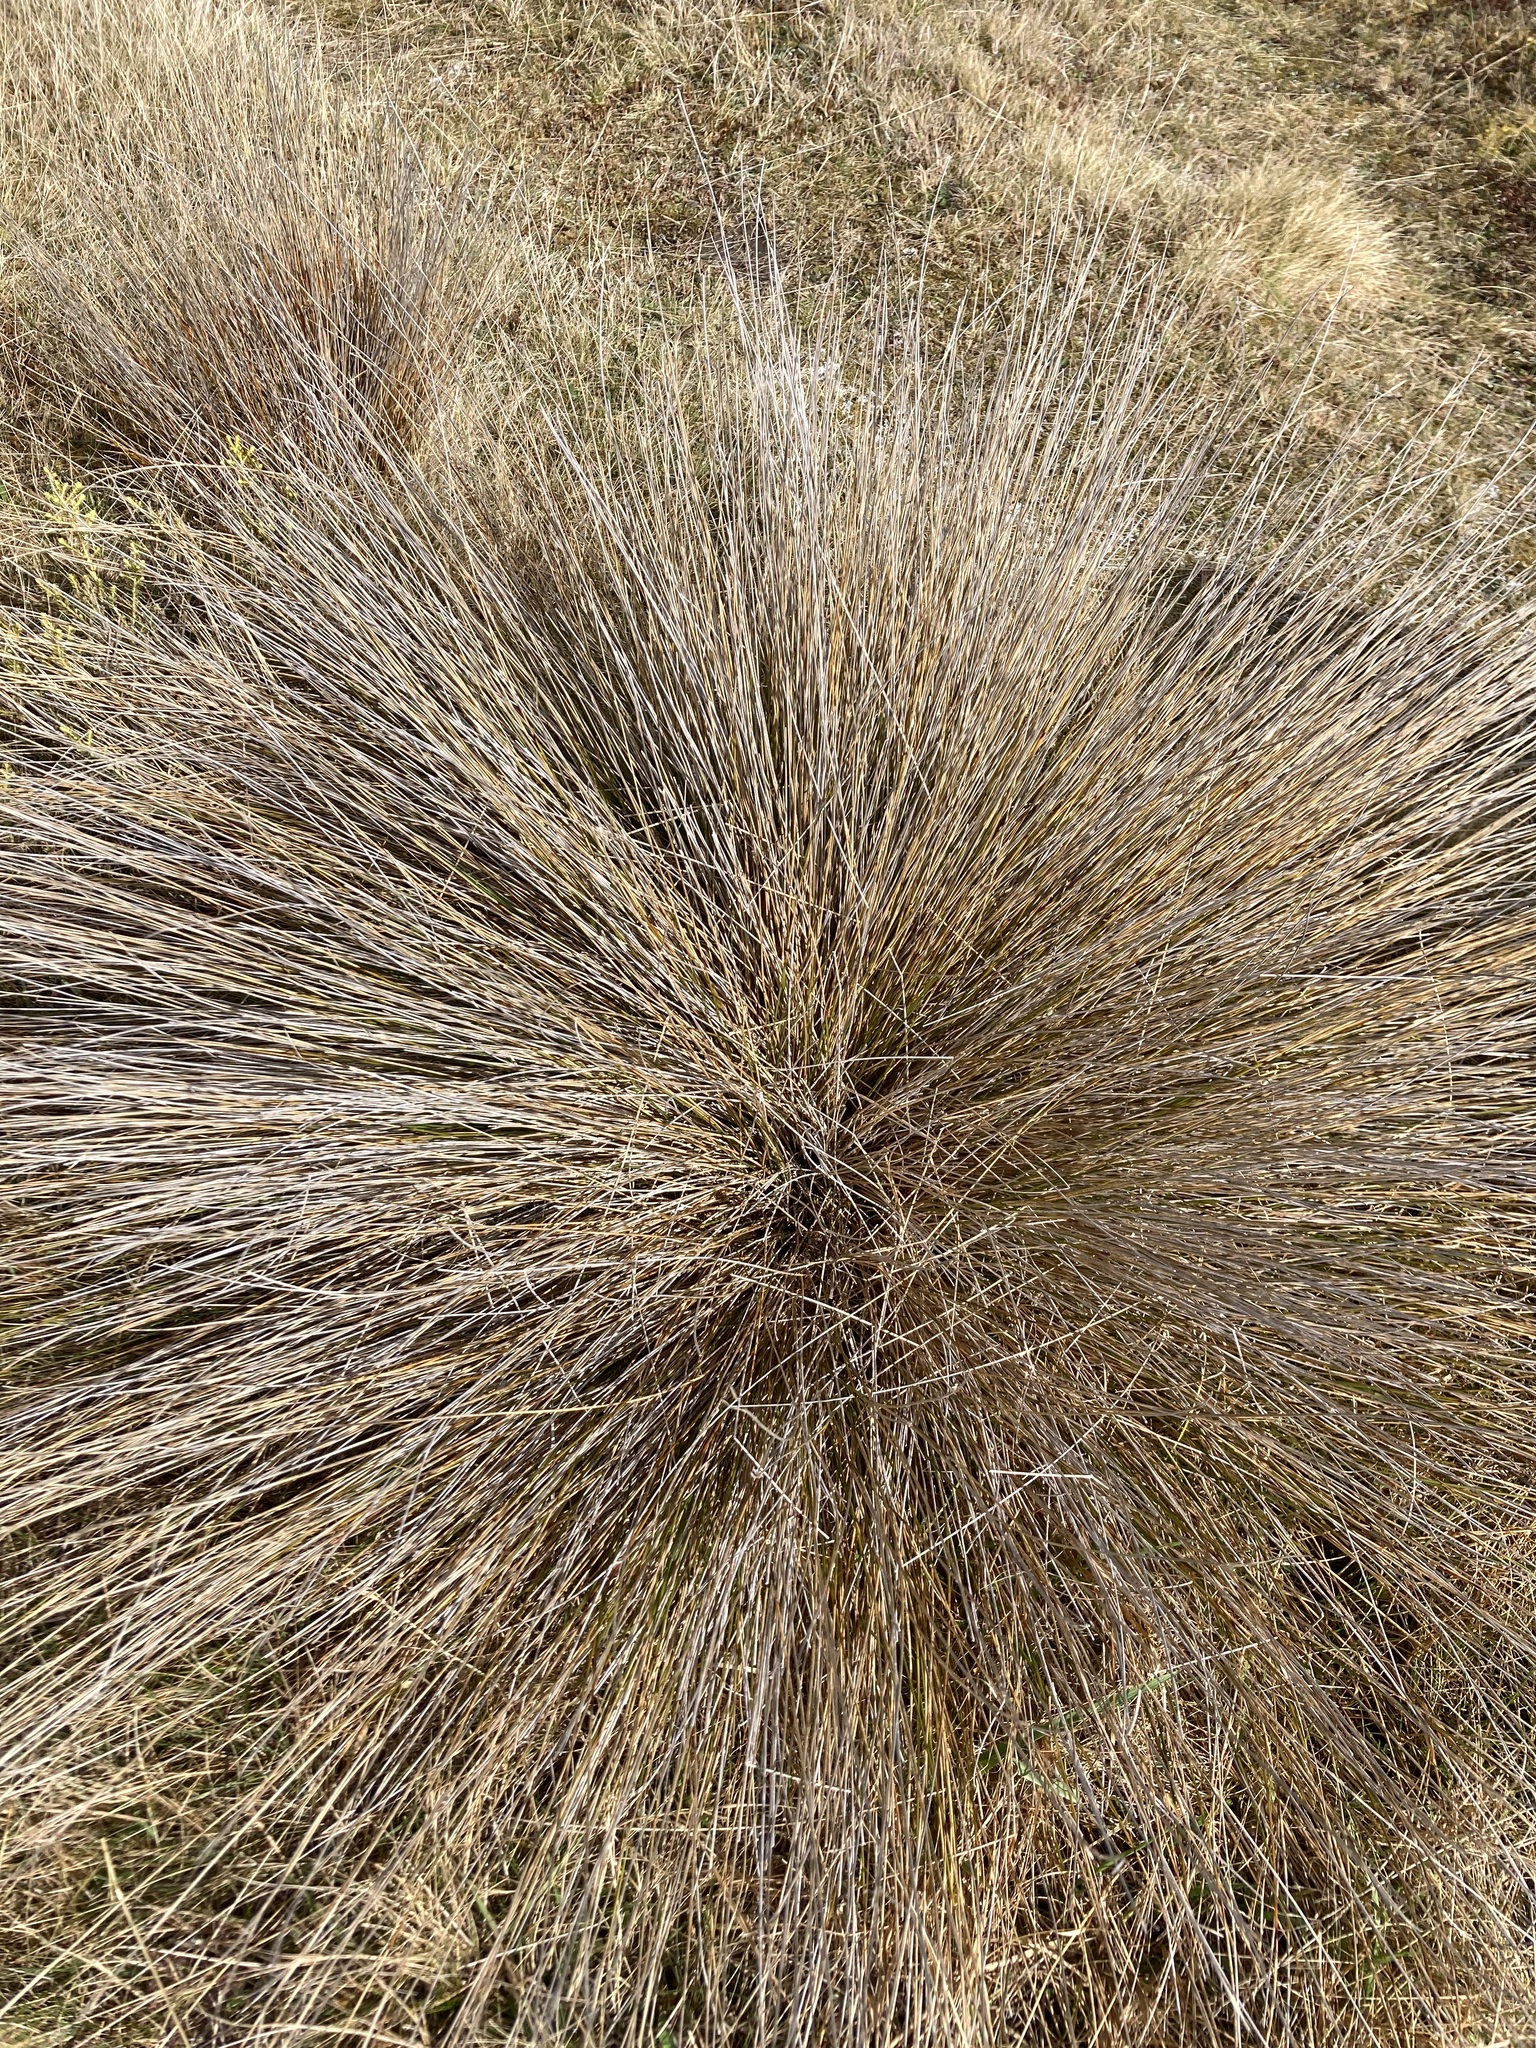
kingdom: Plantae
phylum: Tracheophyta
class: Liliopsida
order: Poales
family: Poaceae
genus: Festuca
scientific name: Festuca novae-zelandiae
